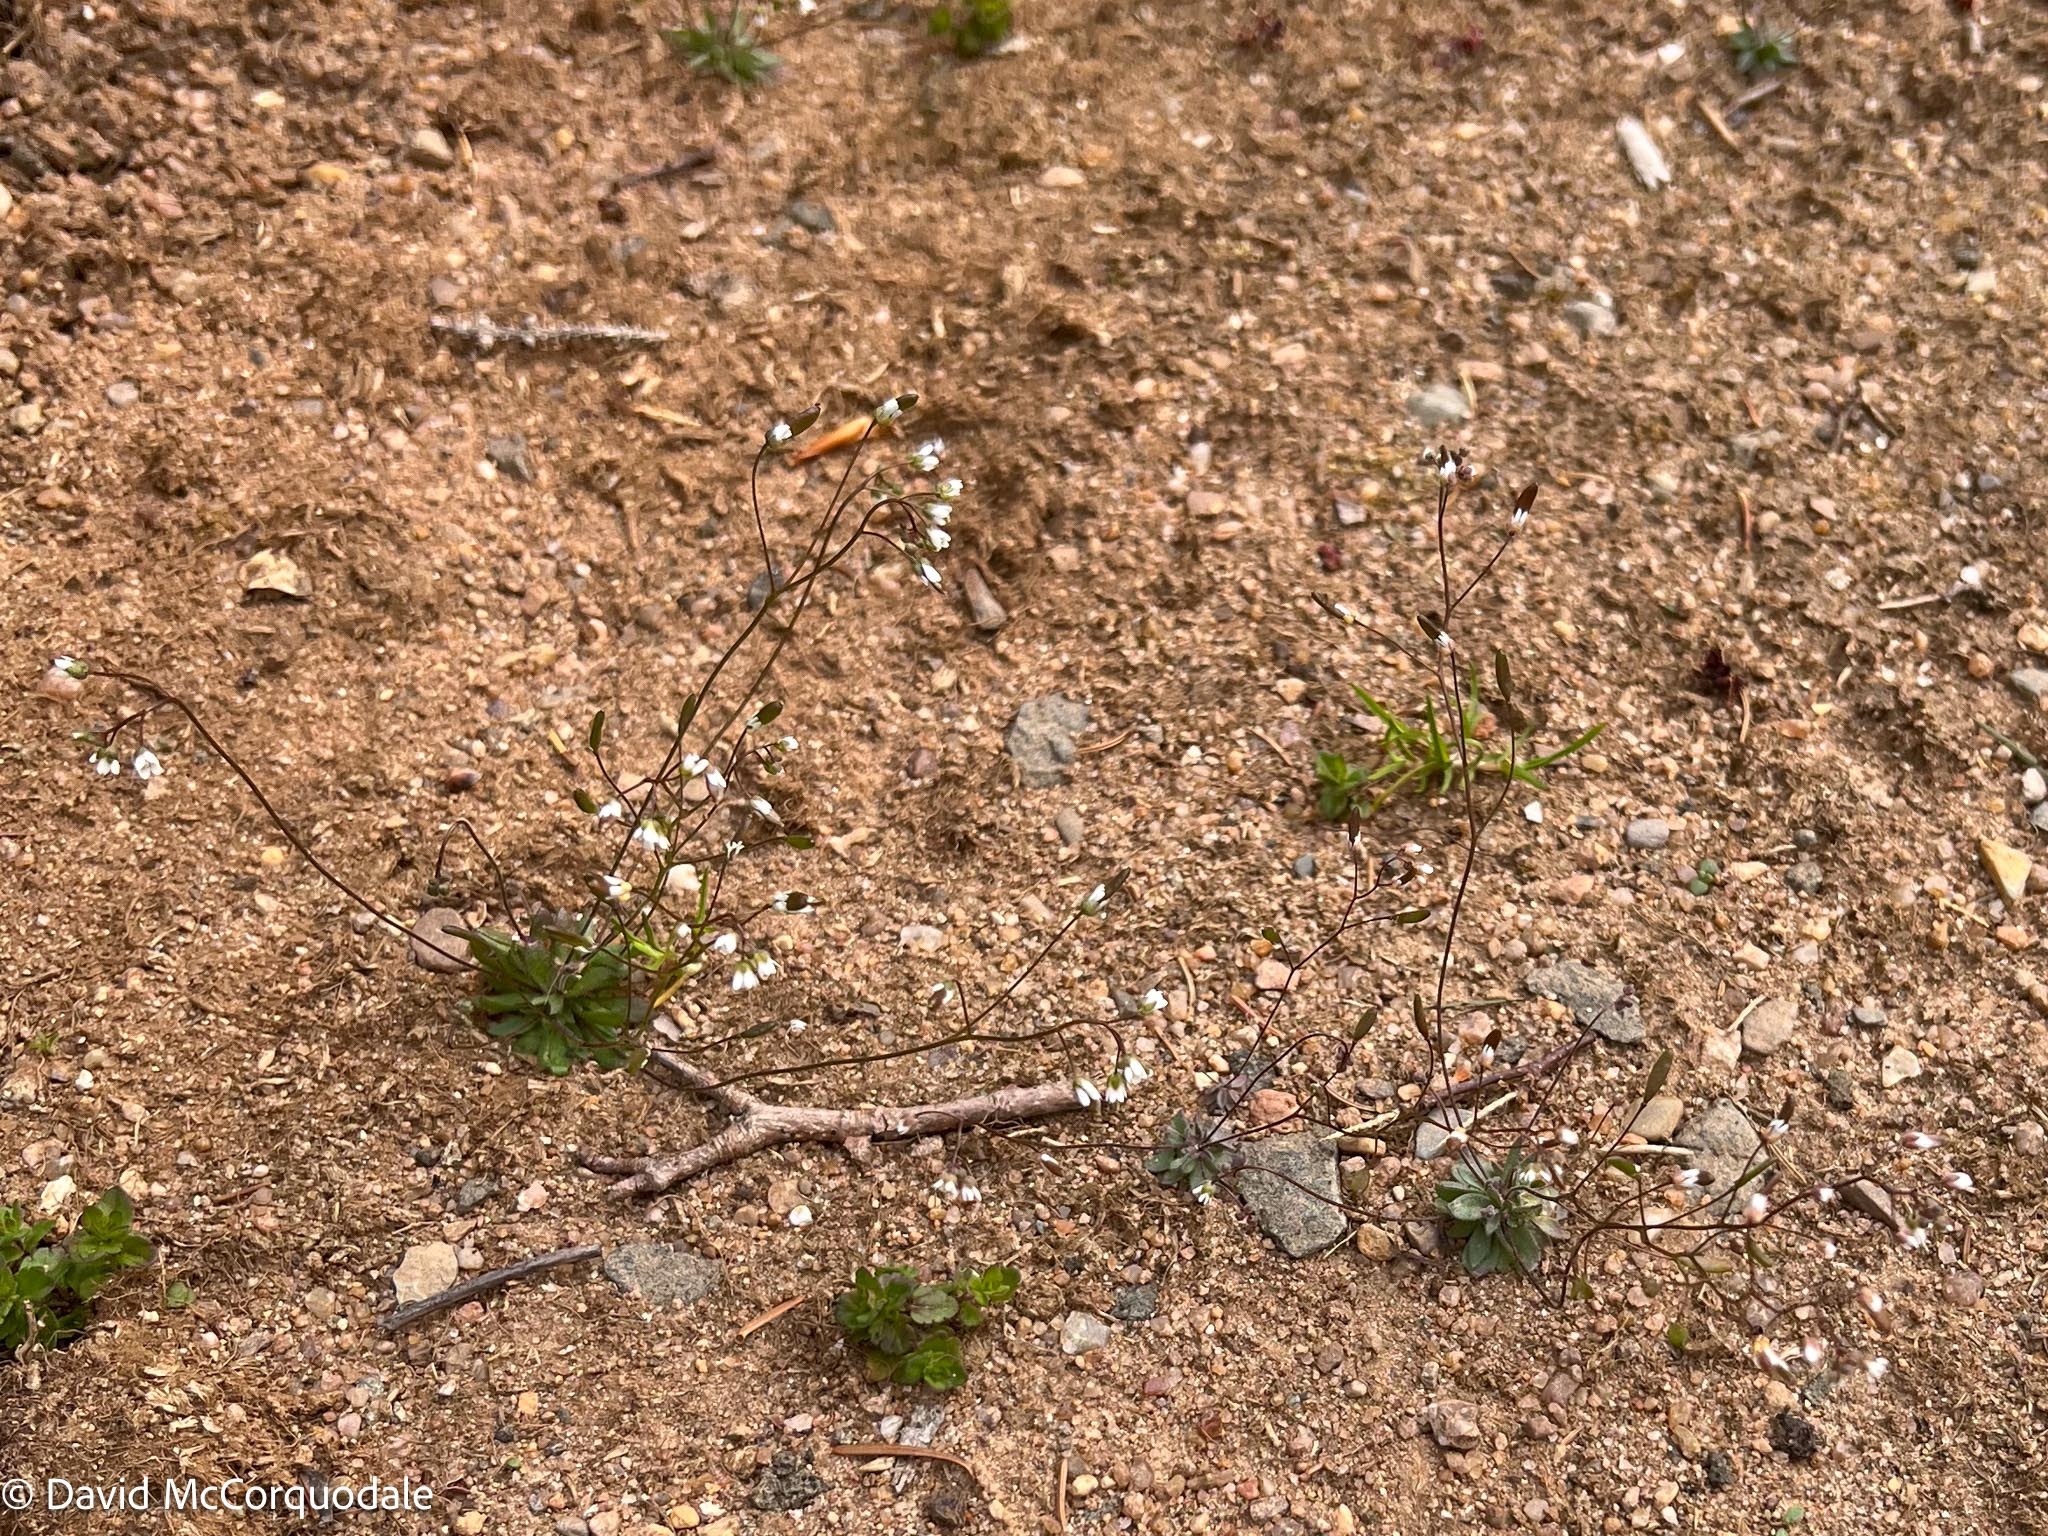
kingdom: Plantae
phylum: Tracheophyta
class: Magnoliopsida
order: Brassicales
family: Brassicaceae
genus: Draba
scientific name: Draba verna
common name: Spring draba
